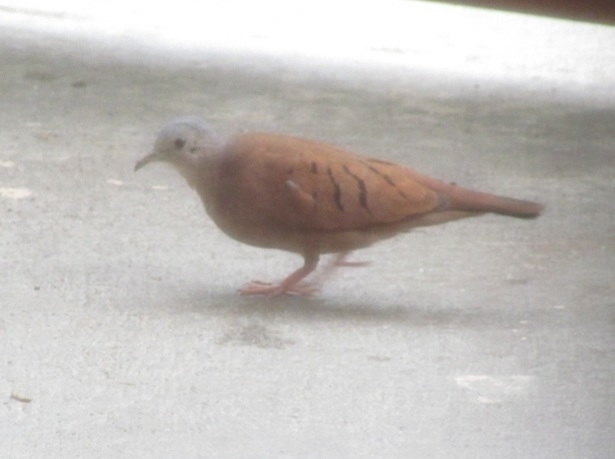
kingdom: Animalia
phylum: Chordata
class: Aves
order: Columbiformes
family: Columbidae
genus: Columbina
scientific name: Columbina talpacoti
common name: Ruddy ground dove
